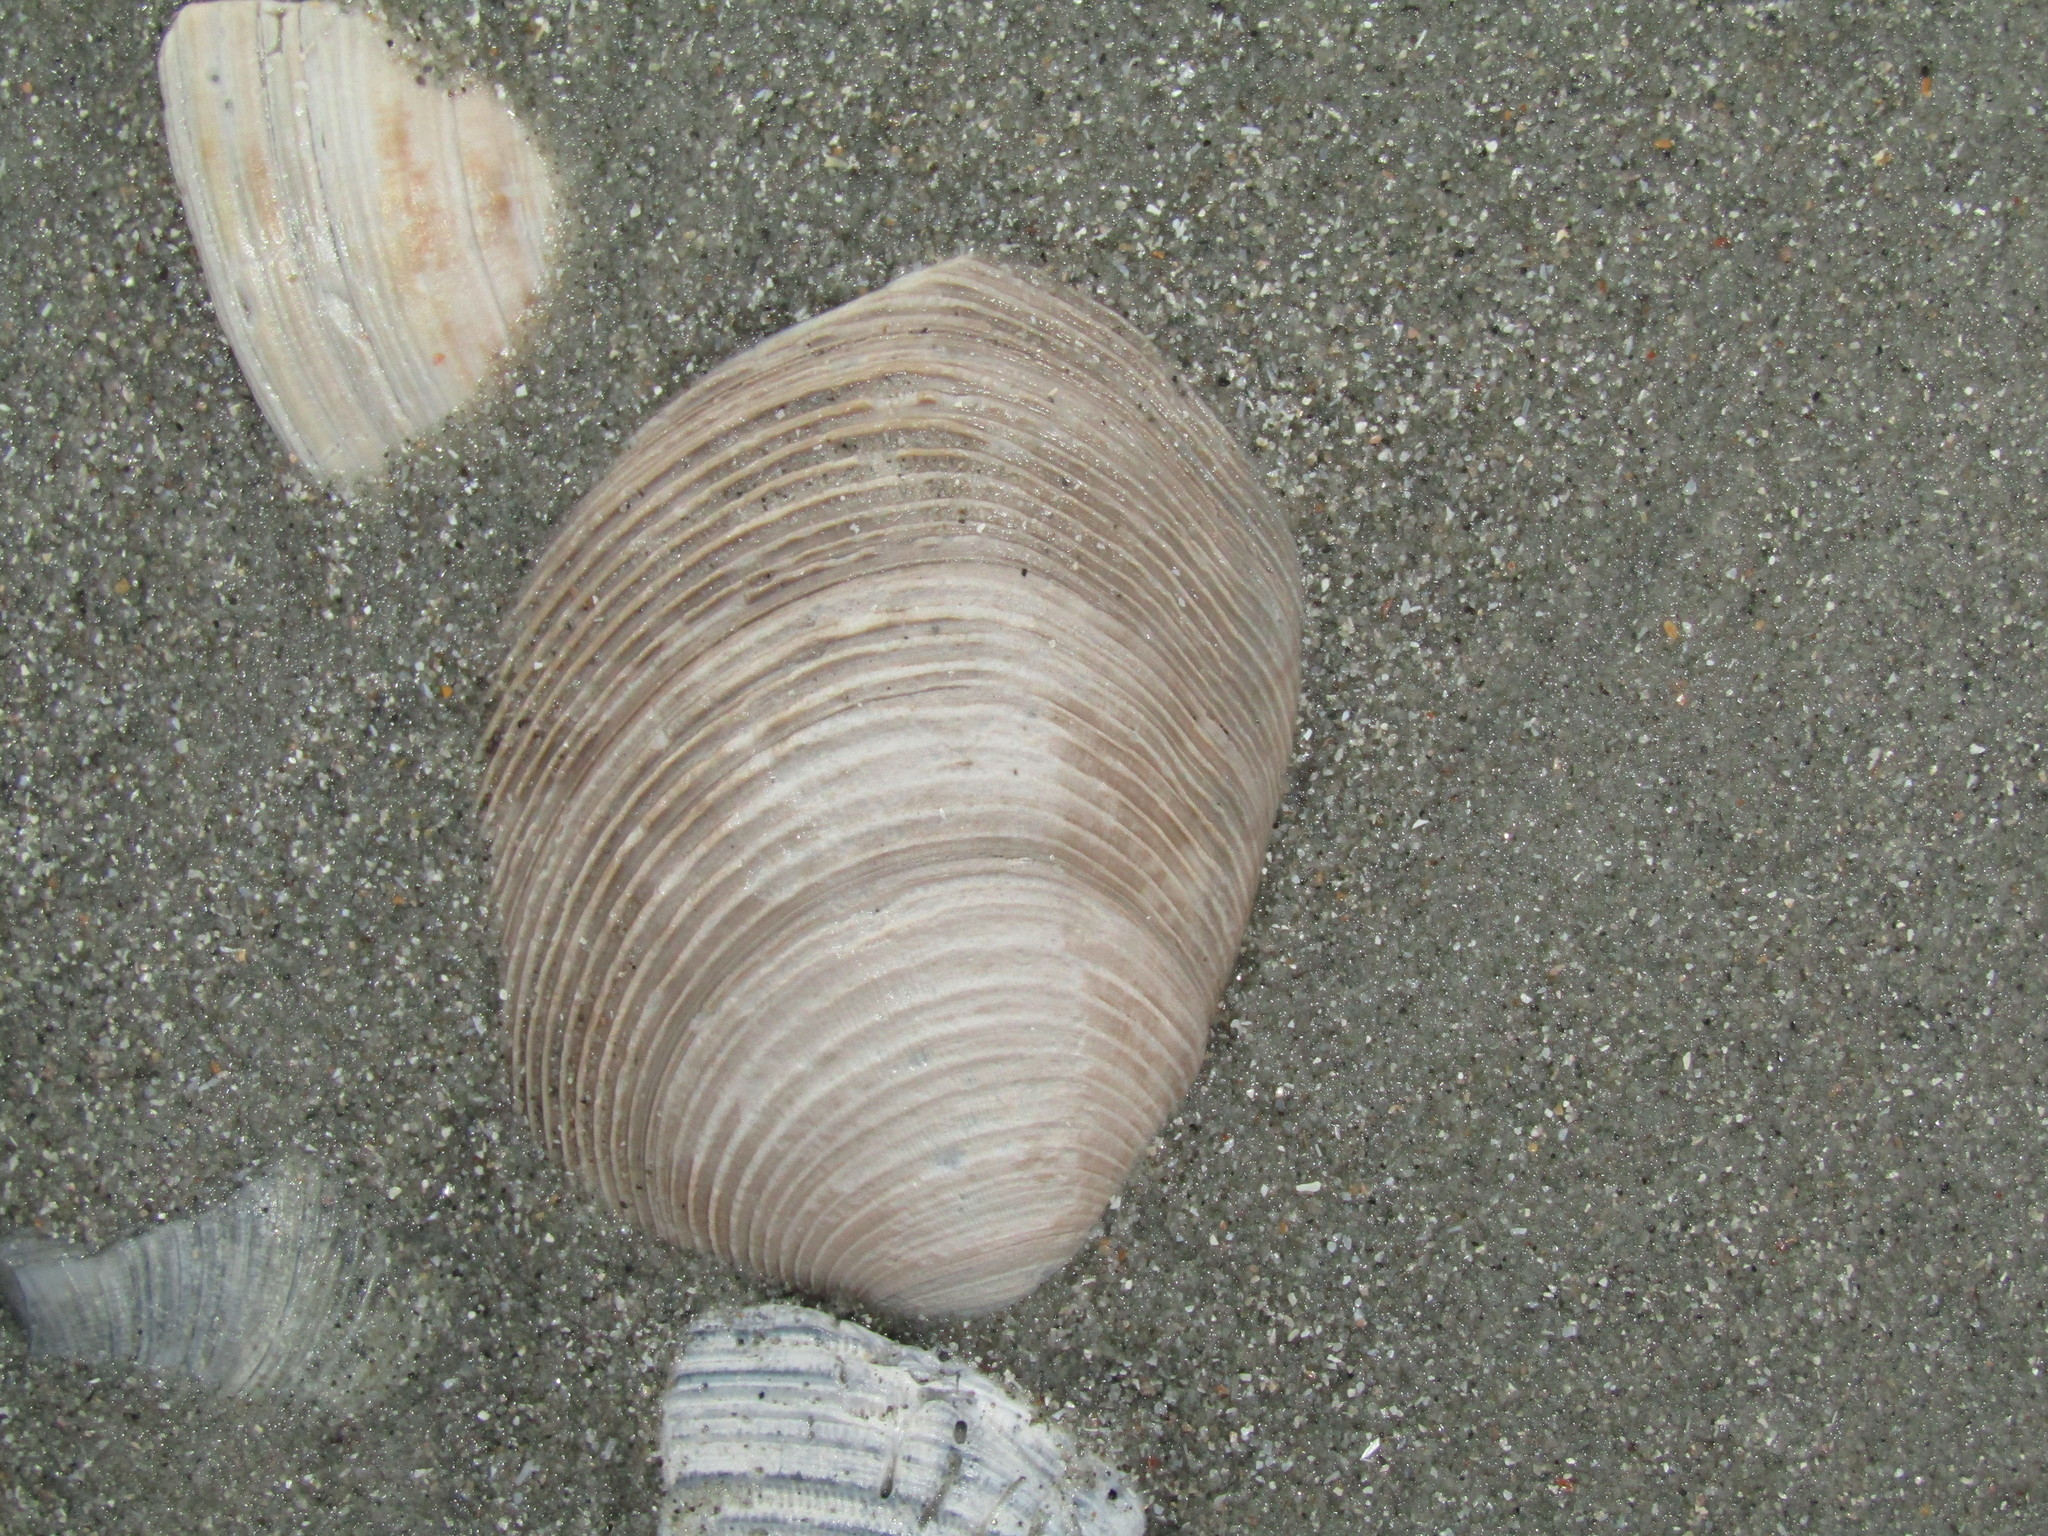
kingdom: Animalia
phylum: Mollusca
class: Bivalvia
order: Venerida
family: Veneridae
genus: Mercenaria
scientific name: Mercenaria campechiensis
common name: Südliche quahog-muschel
